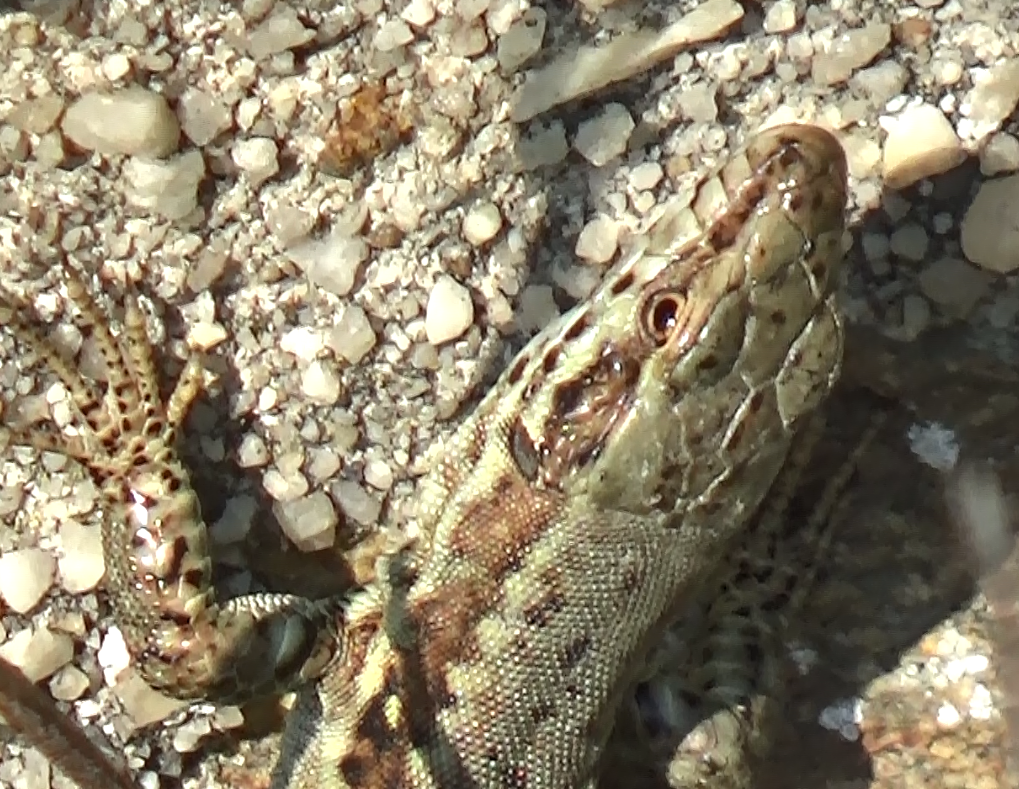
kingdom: Animalia
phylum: Chordata
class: Squamata
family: Lacertidae
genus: Podarcis
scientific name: Podarcis muralis
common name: Common wall lizard
